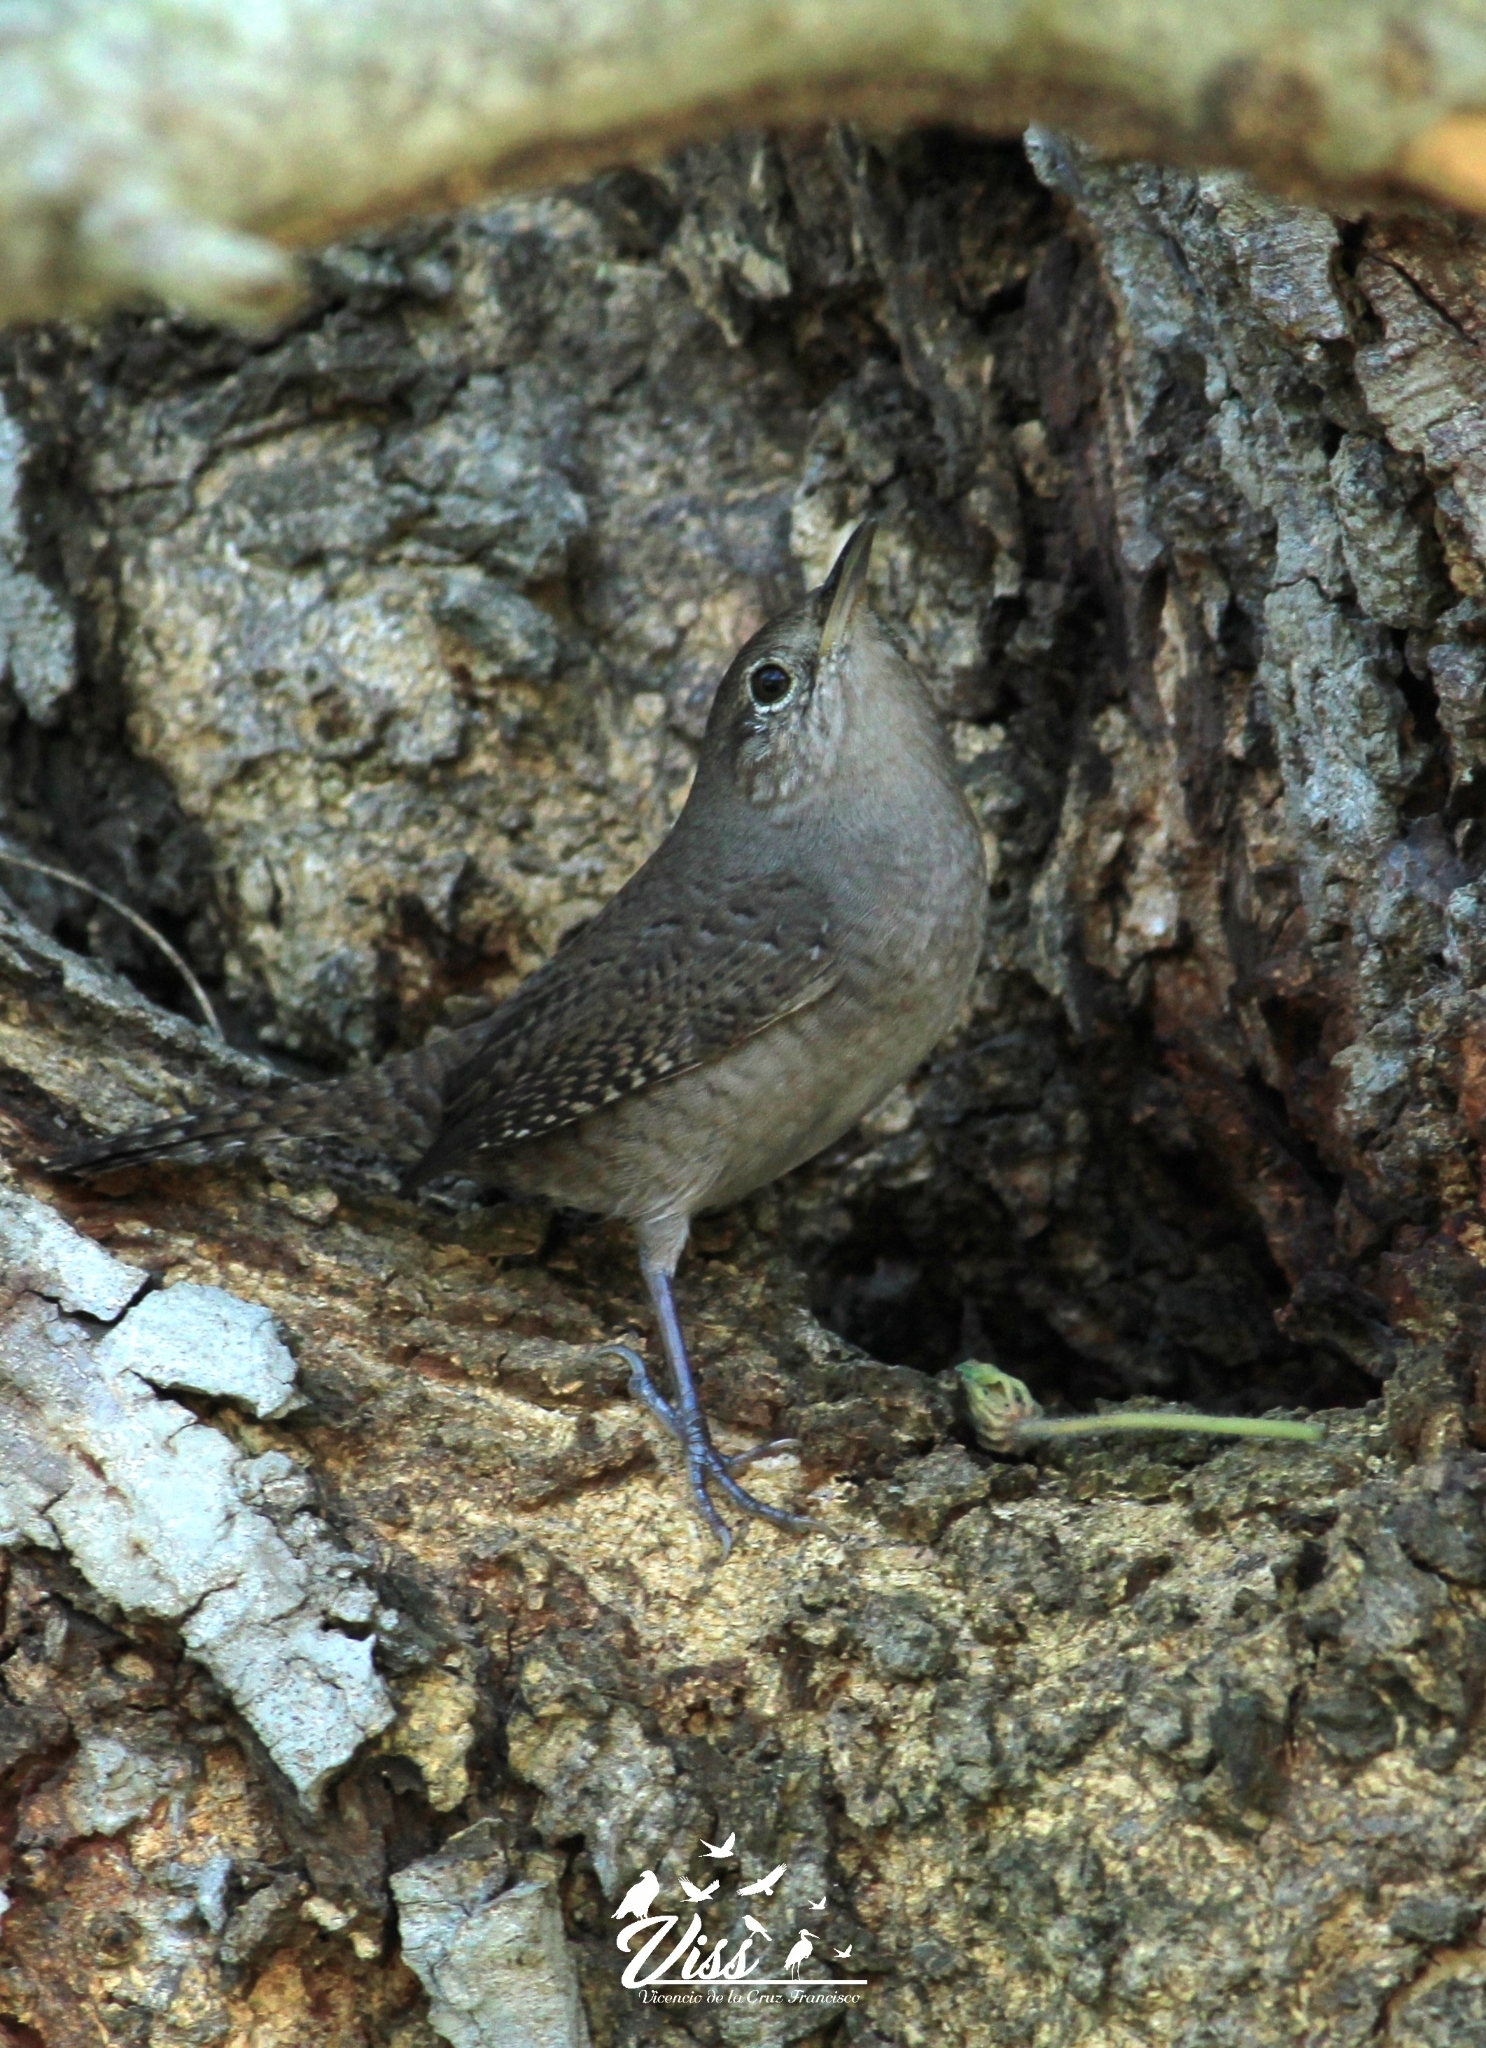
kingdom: Animalia
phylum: Chordata
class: Aves
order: Passeriformes
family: Troglodytidae
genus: Troglodytes
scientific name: Troglodytes aedon
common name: House wren
